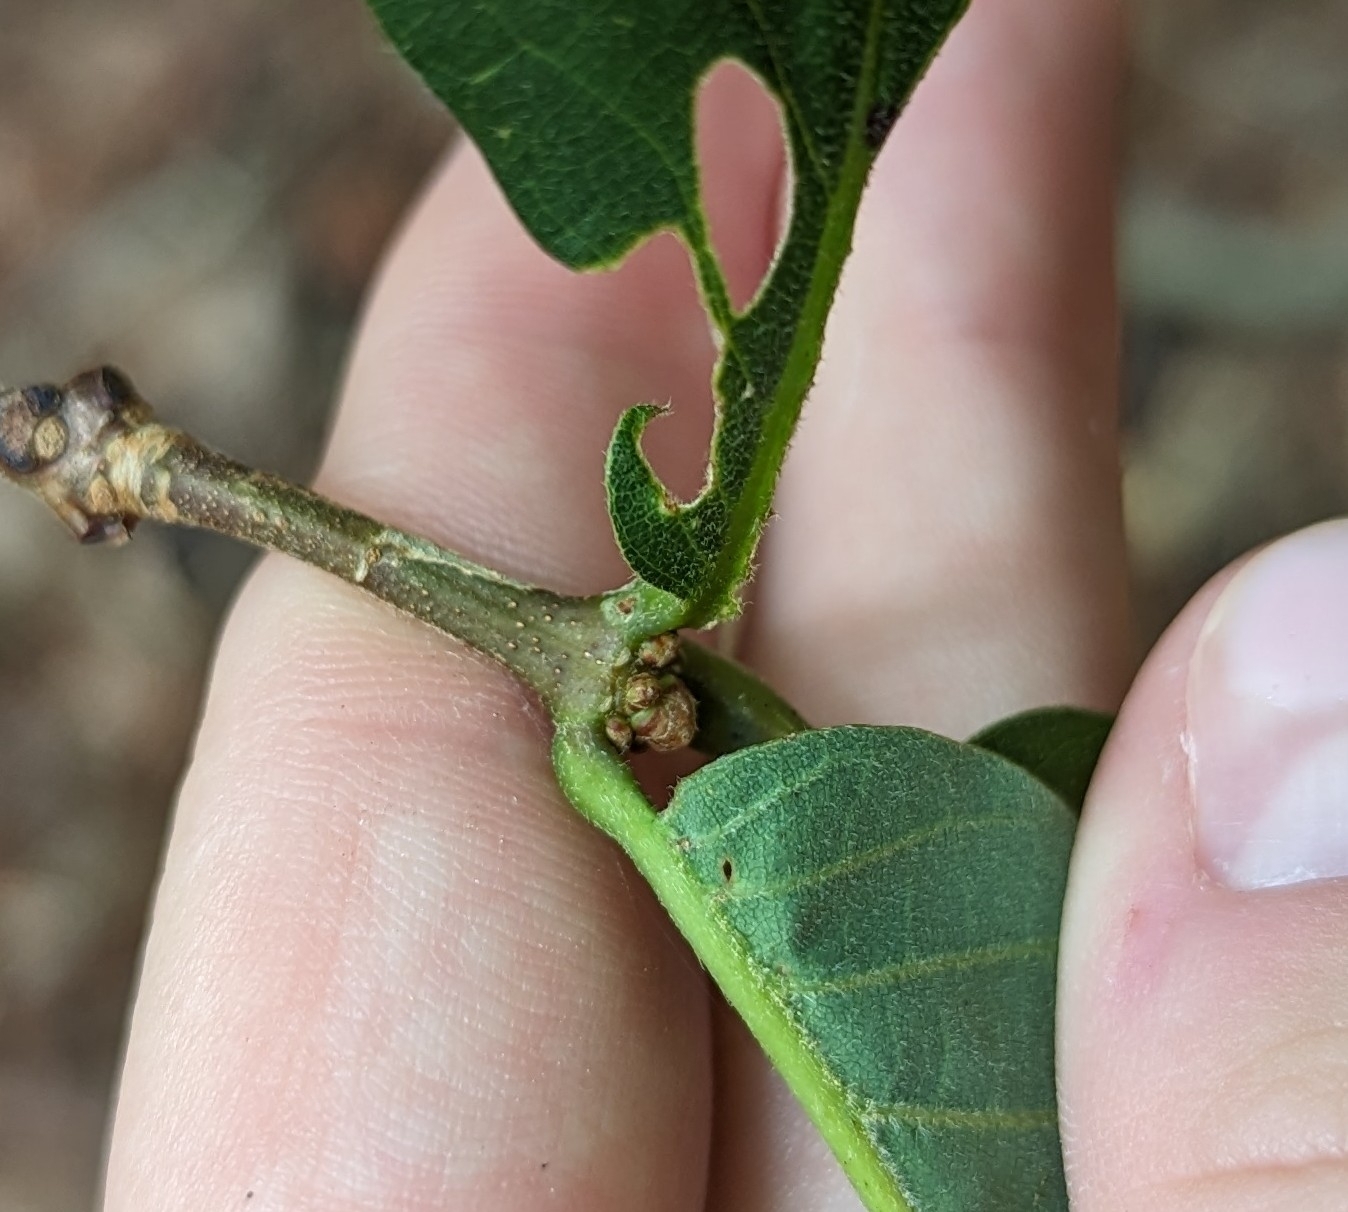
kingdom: Plantae
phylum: Tracheophyta
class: Magnoliopsida
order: Fagales
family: Fagaceae
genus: Quercus
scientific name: Quercus montana
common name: Chestnut oak
